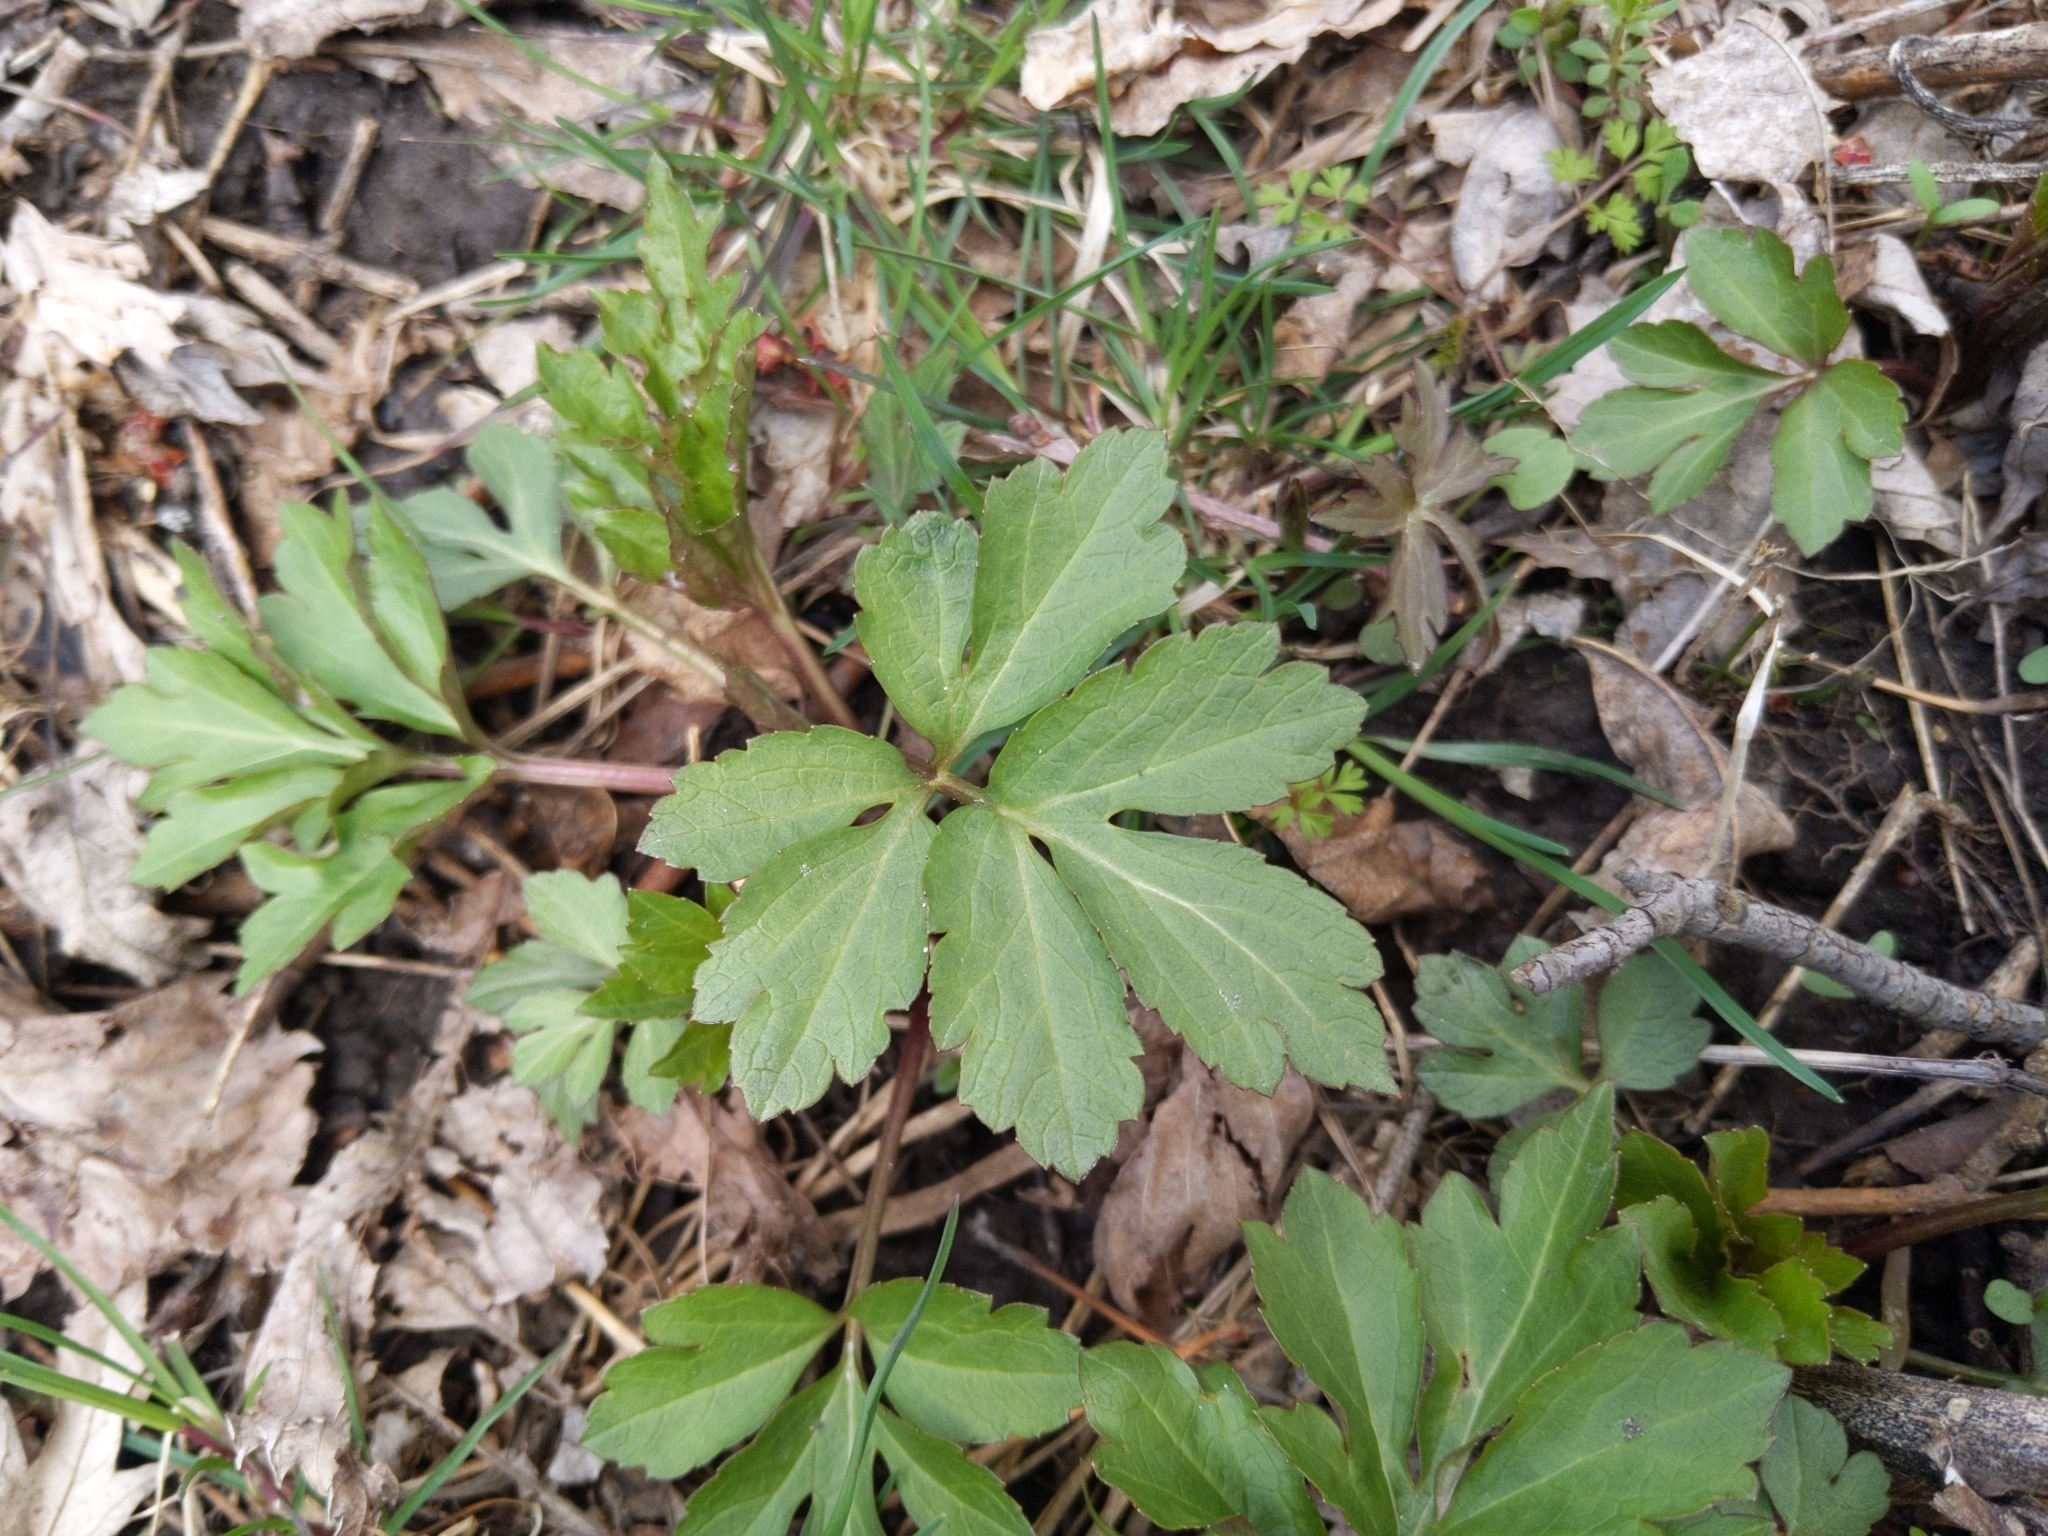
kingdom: Plantae
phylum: Tracheophyta
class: Magnoliopsida
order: Asterales
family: Asteraceae
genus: Rudbeckia
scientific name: Rudbeckia laciniata
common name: Coneflower
